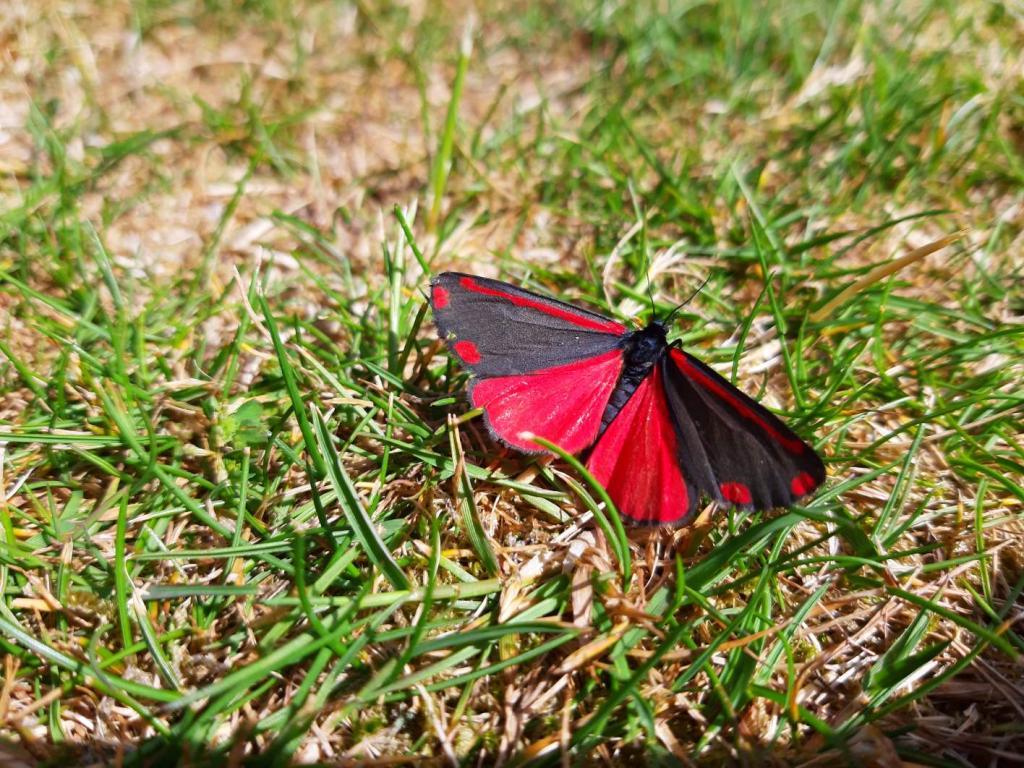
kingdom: Animalia
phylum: Arthropoda
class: Insecta
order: Lepidoptera
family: Erebidae
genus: Tyria
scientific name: Tyria jacobaeae
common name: Cinnabar
